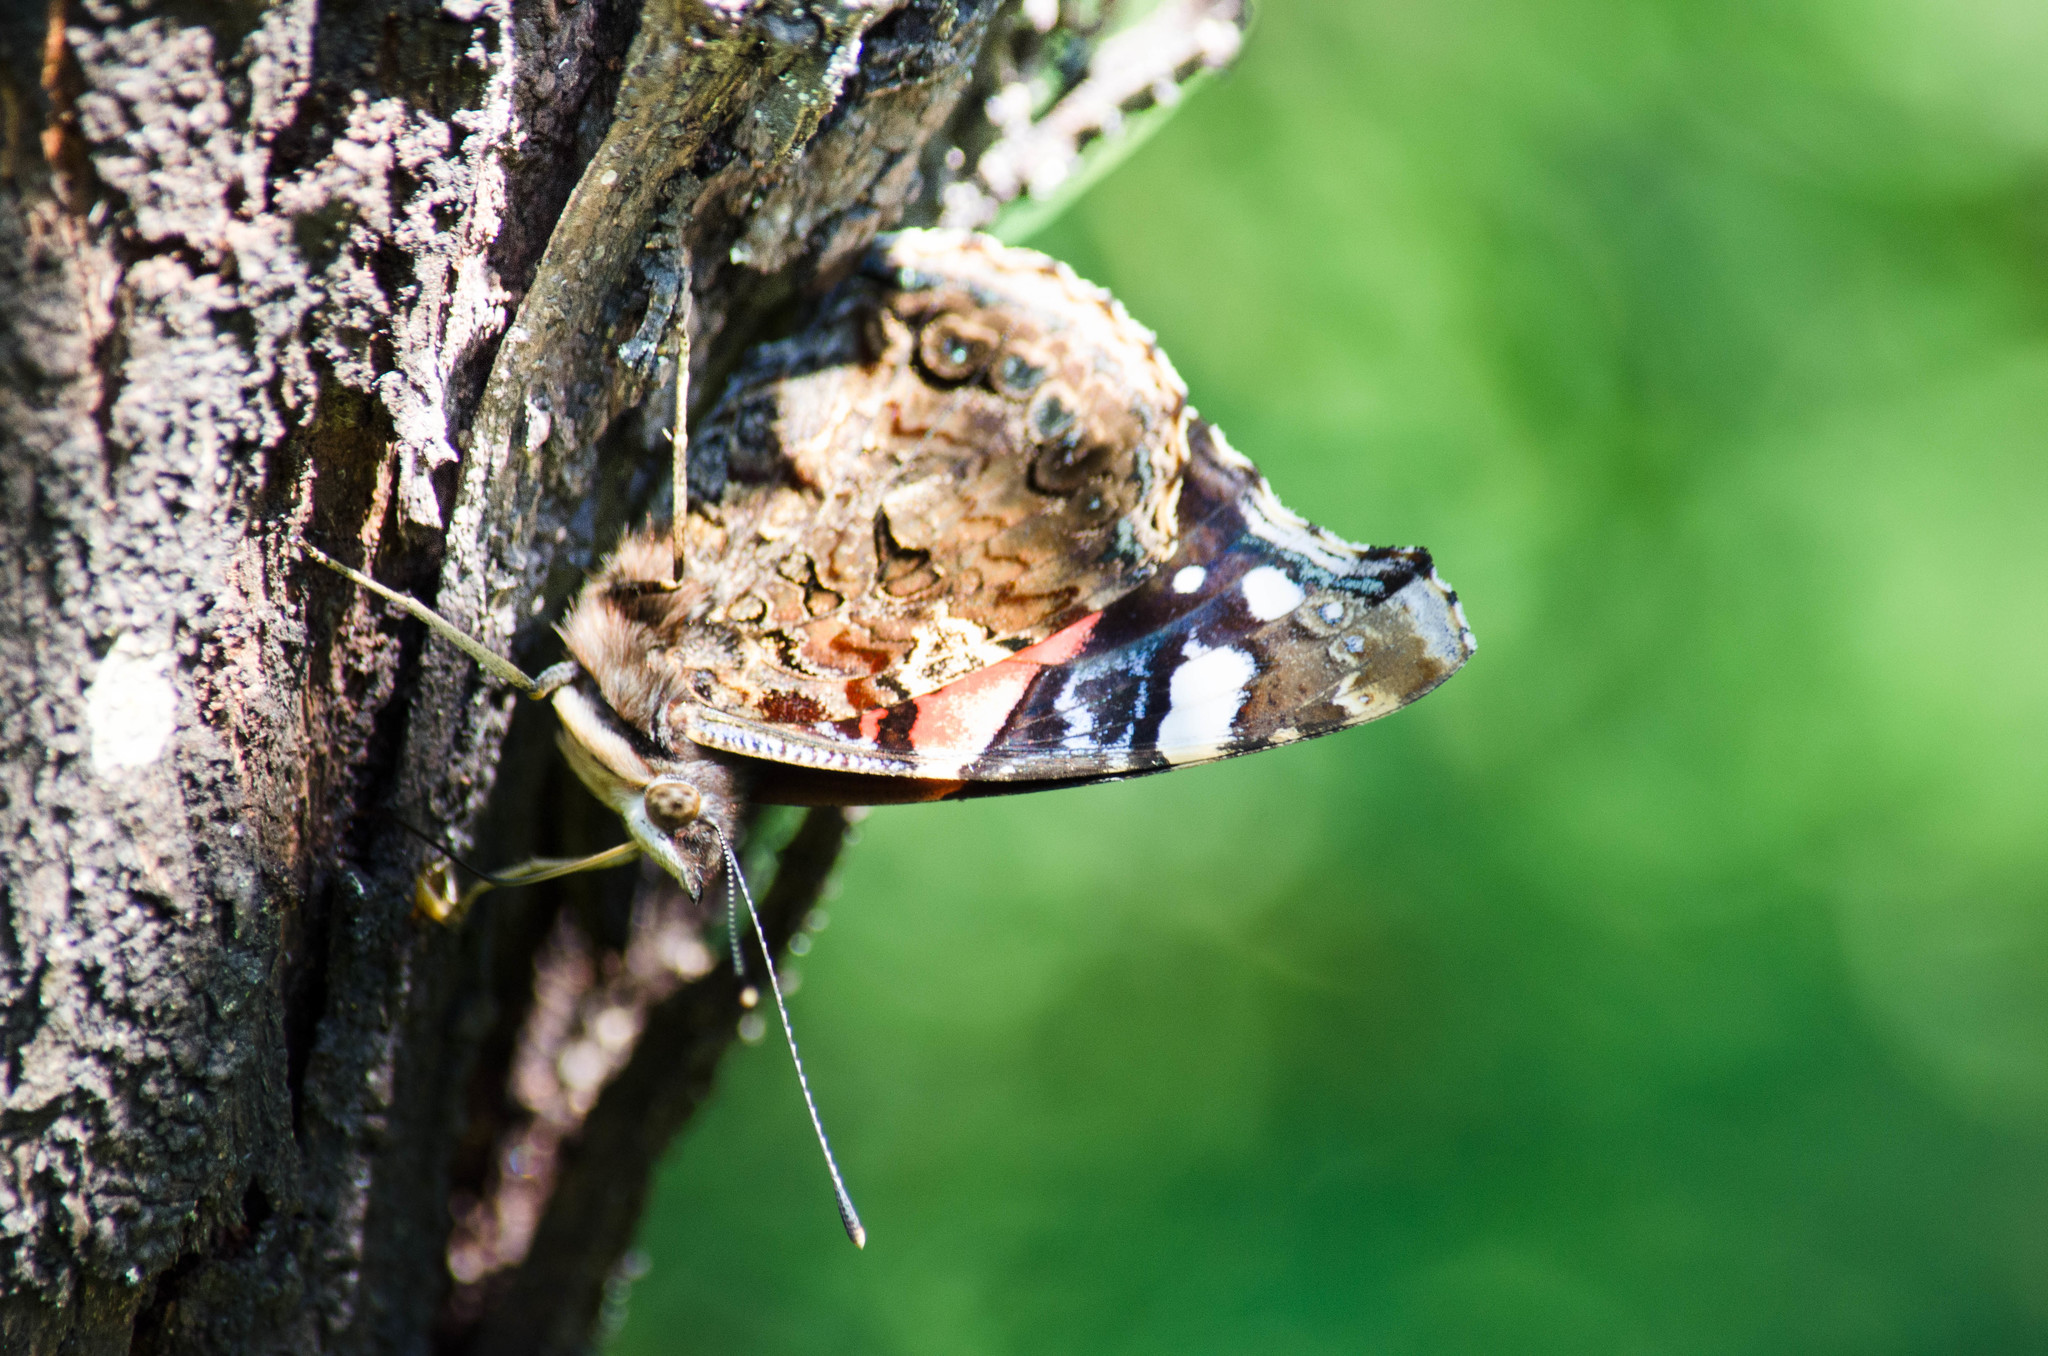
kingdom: Animalia
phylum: Arthropoda
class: Insecta
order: Lepidoptera
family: Nymphalidae
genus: Vanessa
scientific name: Vanessa atalanta
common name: Red admiral
